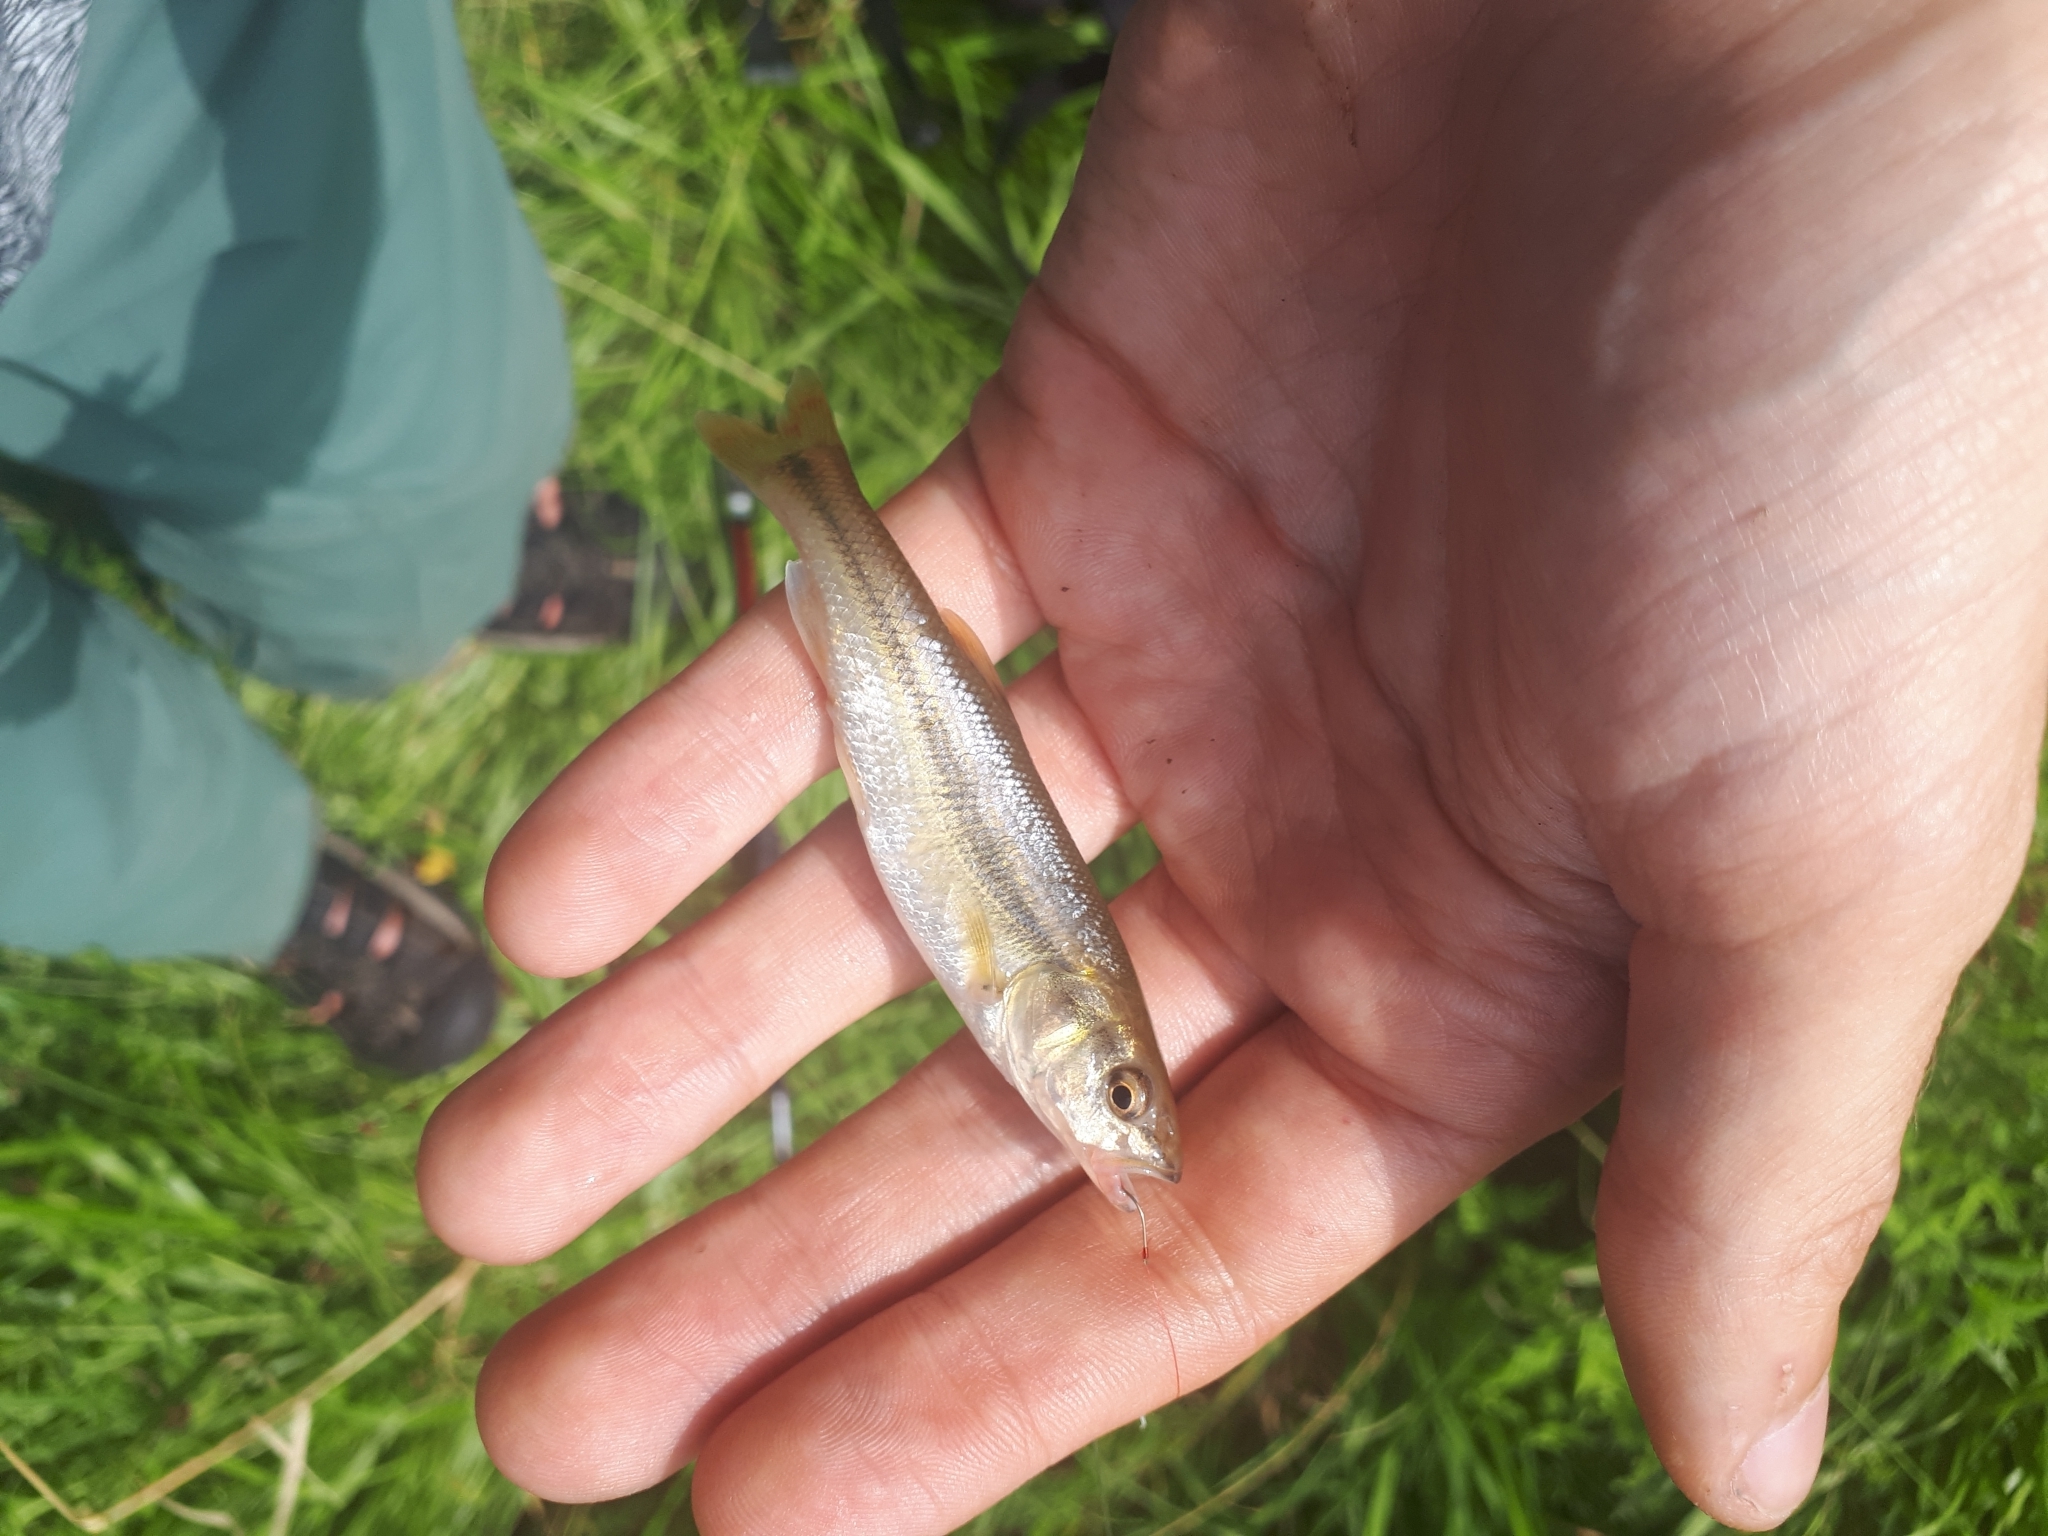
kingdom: Animalia
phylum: Chordata
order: Cypriniformes
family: Cyprinidae
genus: Semotilus
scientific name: Semotilus atromaculatus
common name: Creek chub
